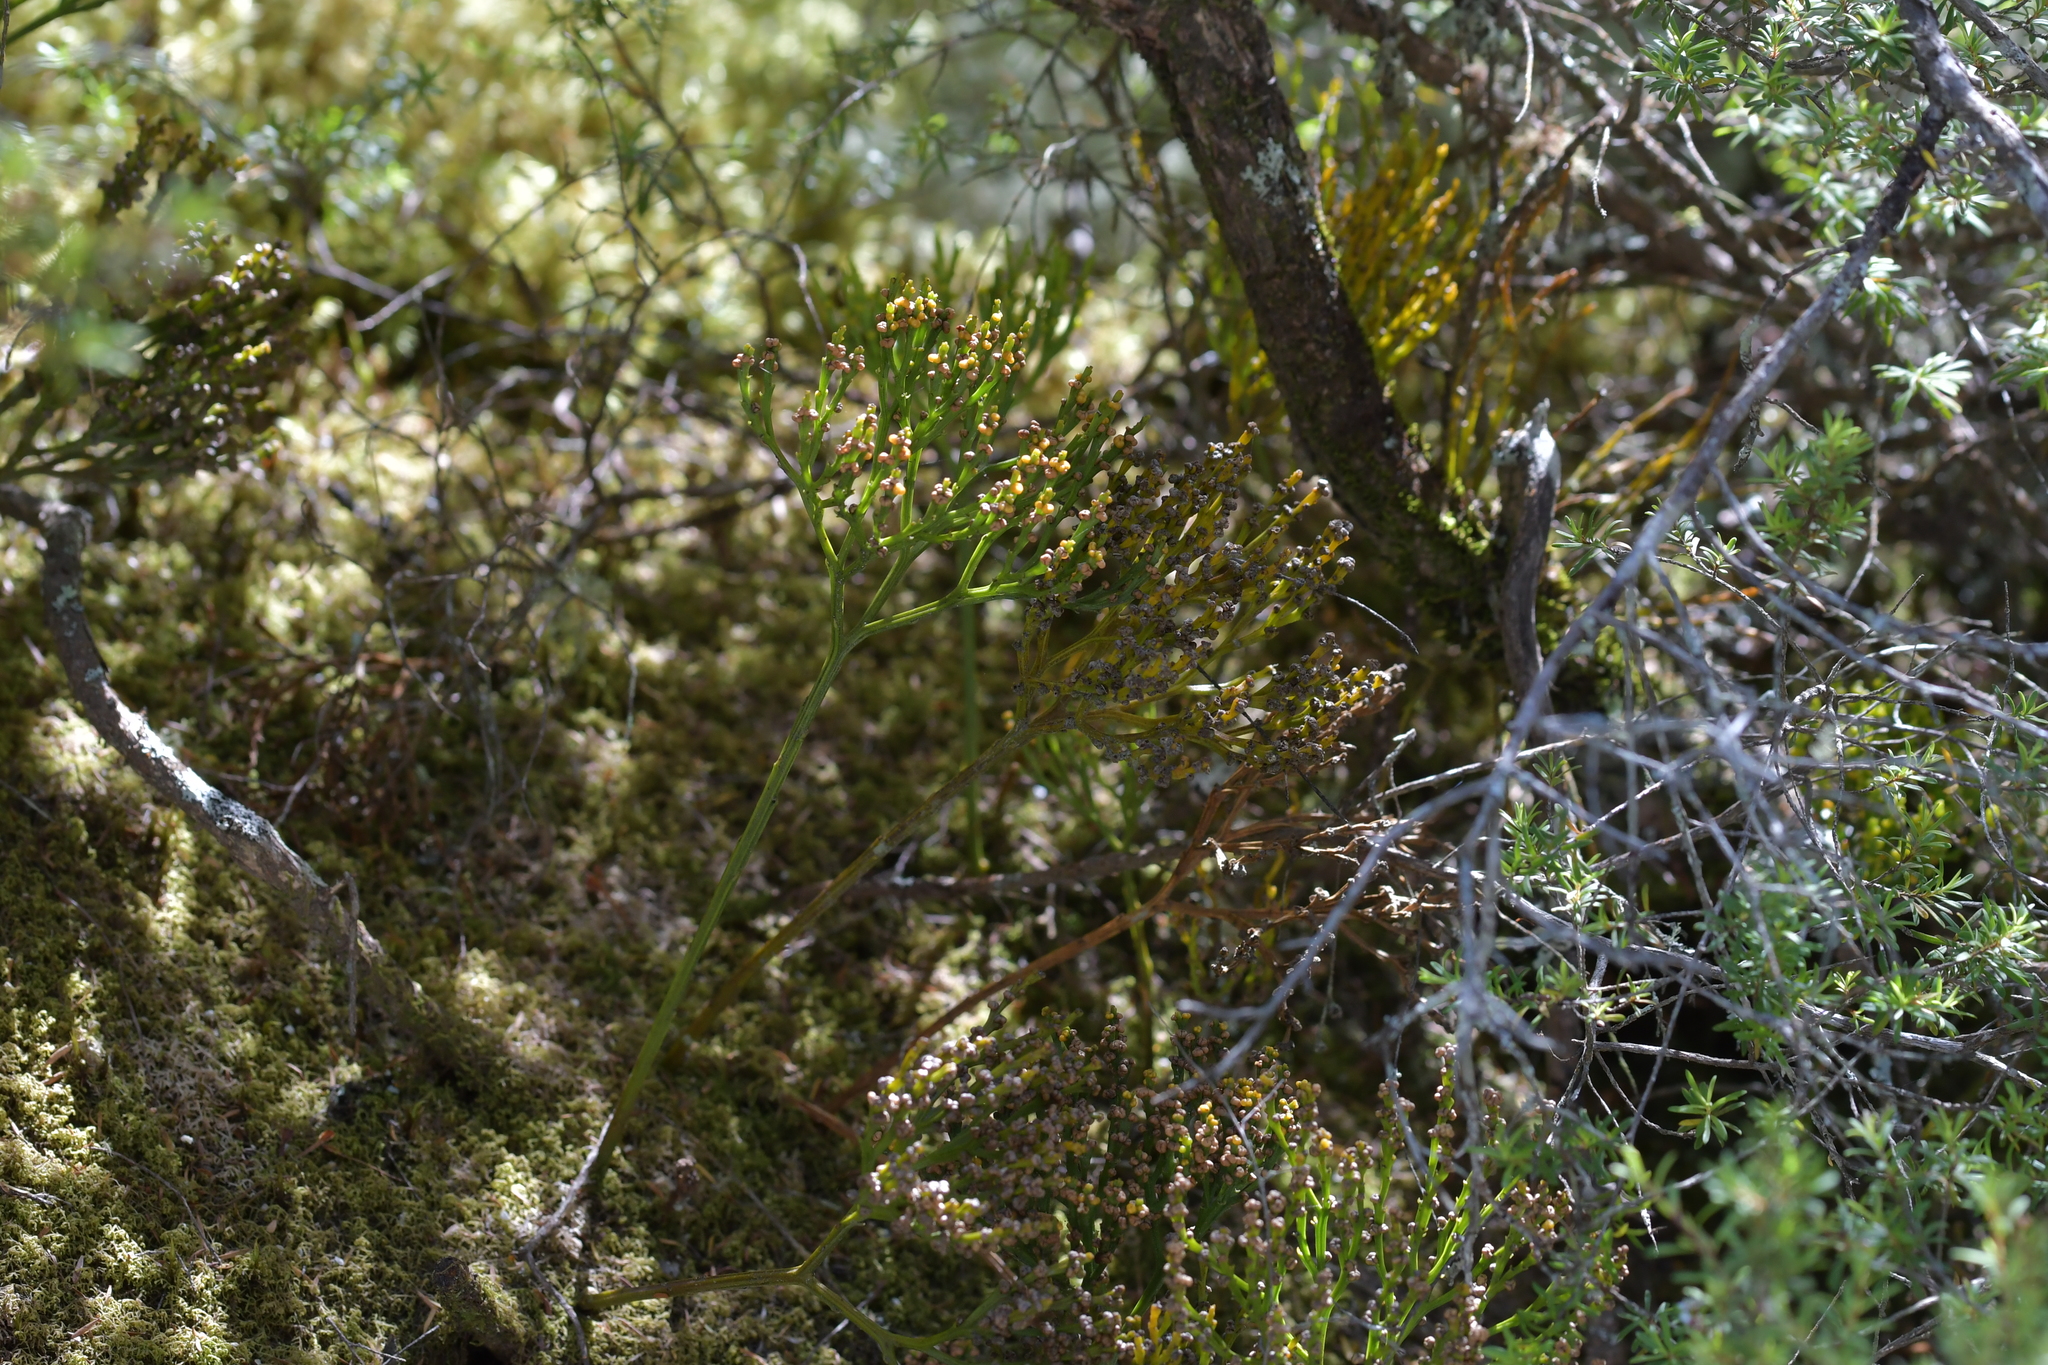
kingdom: Plantae
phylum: Tracheophyta
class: Polypodiopsida
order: Psilotales
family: Psilotaceae
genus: Psilotum
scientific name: Psilotum nudum
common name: Skeleton fork fern
